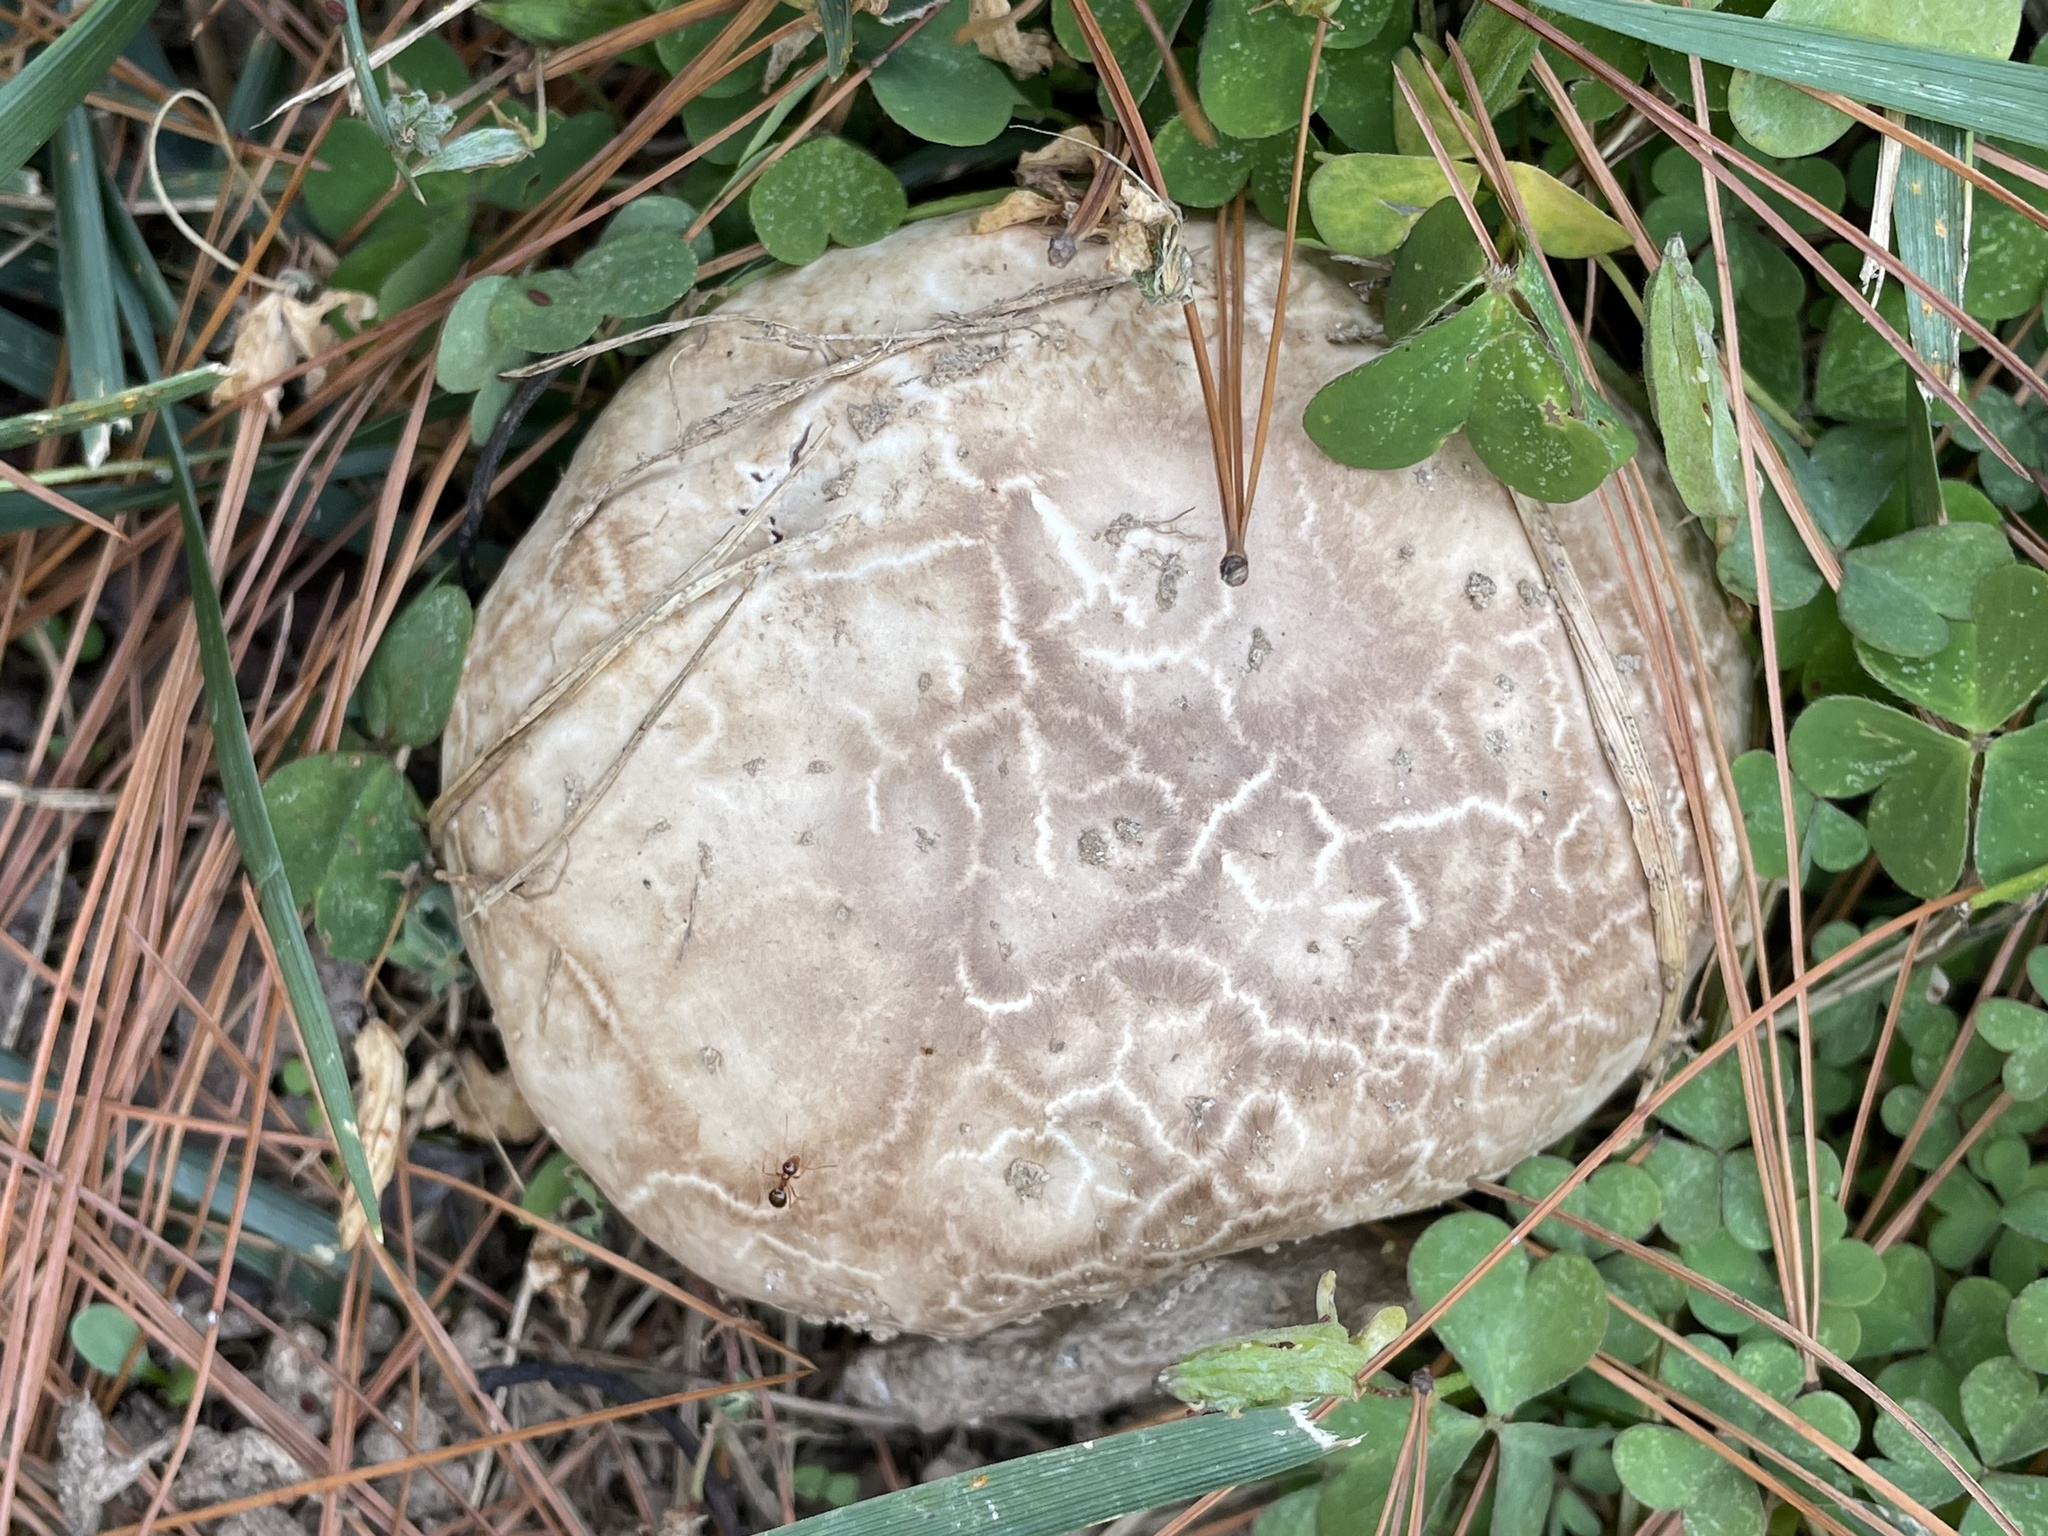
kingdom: Fungi
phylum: Basidiomycota
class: Agaricomycetes
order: Agaricales
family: Lycoperdaceae
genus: Calvatia
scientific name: Calvatia craniiformis
